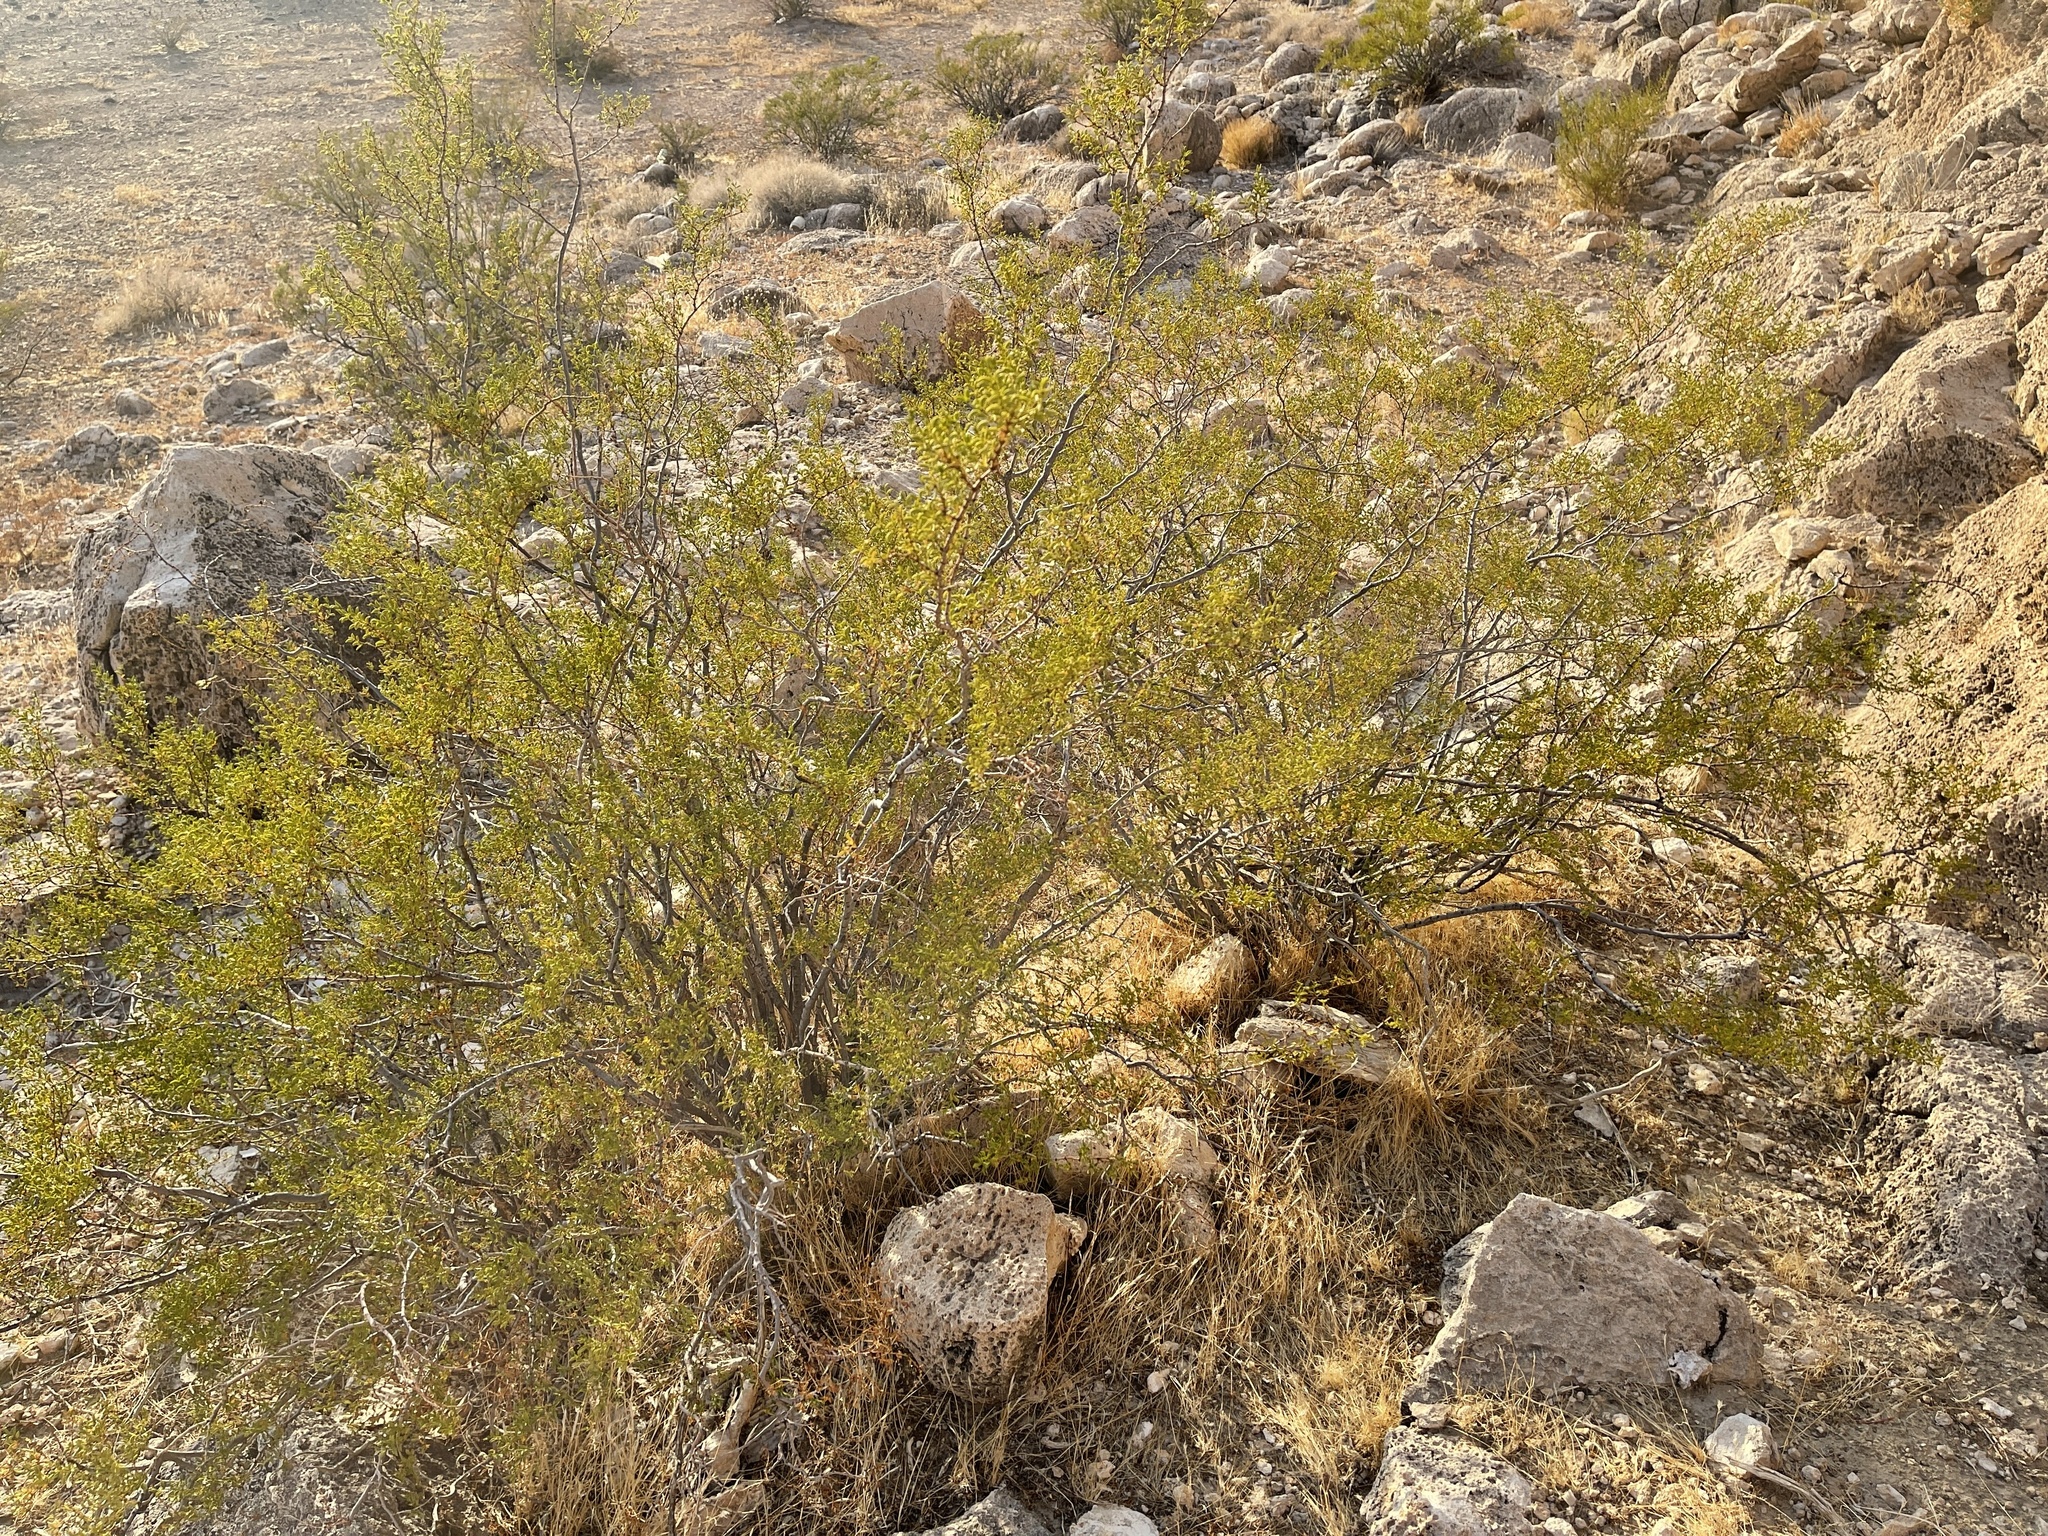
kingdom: Plantae
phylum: Tracheophyta
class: Magnoliopsida
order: Zygophyllales
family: Zygophyllaceae
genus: Larrea
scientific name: Larrea tridentata
